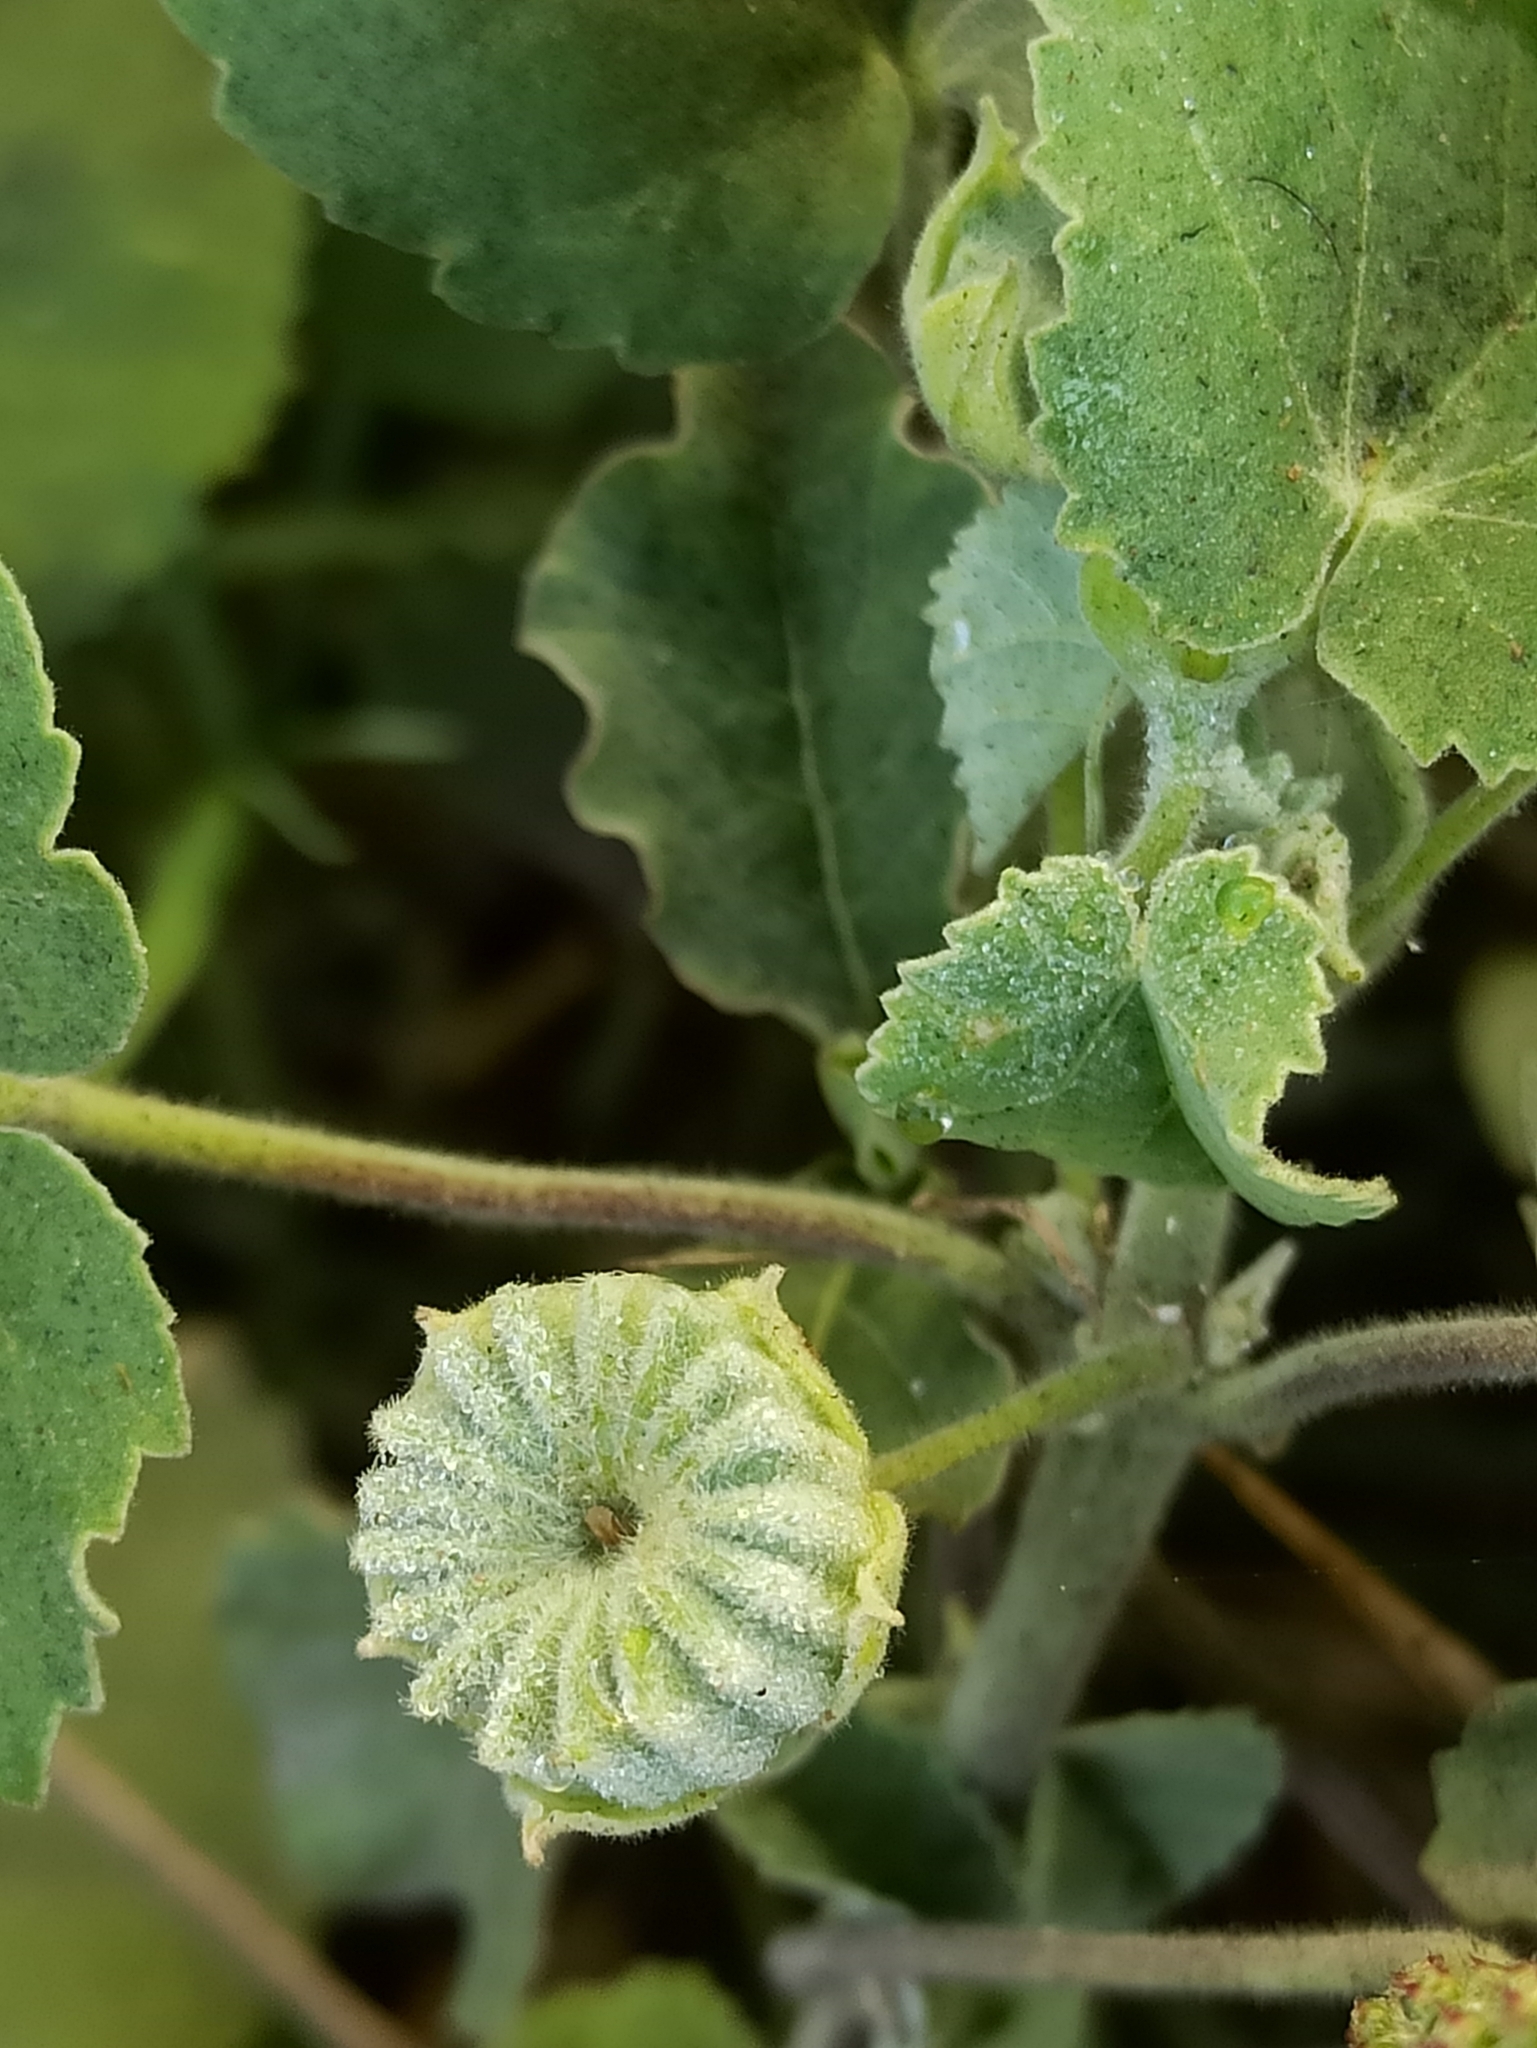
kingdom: Plantae
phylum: Tracheophyta
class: Magnoliopsida
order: Malvales
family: Malvaceae
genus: Abutilon
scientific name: Abutilon indicum
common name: Indian abutilon
